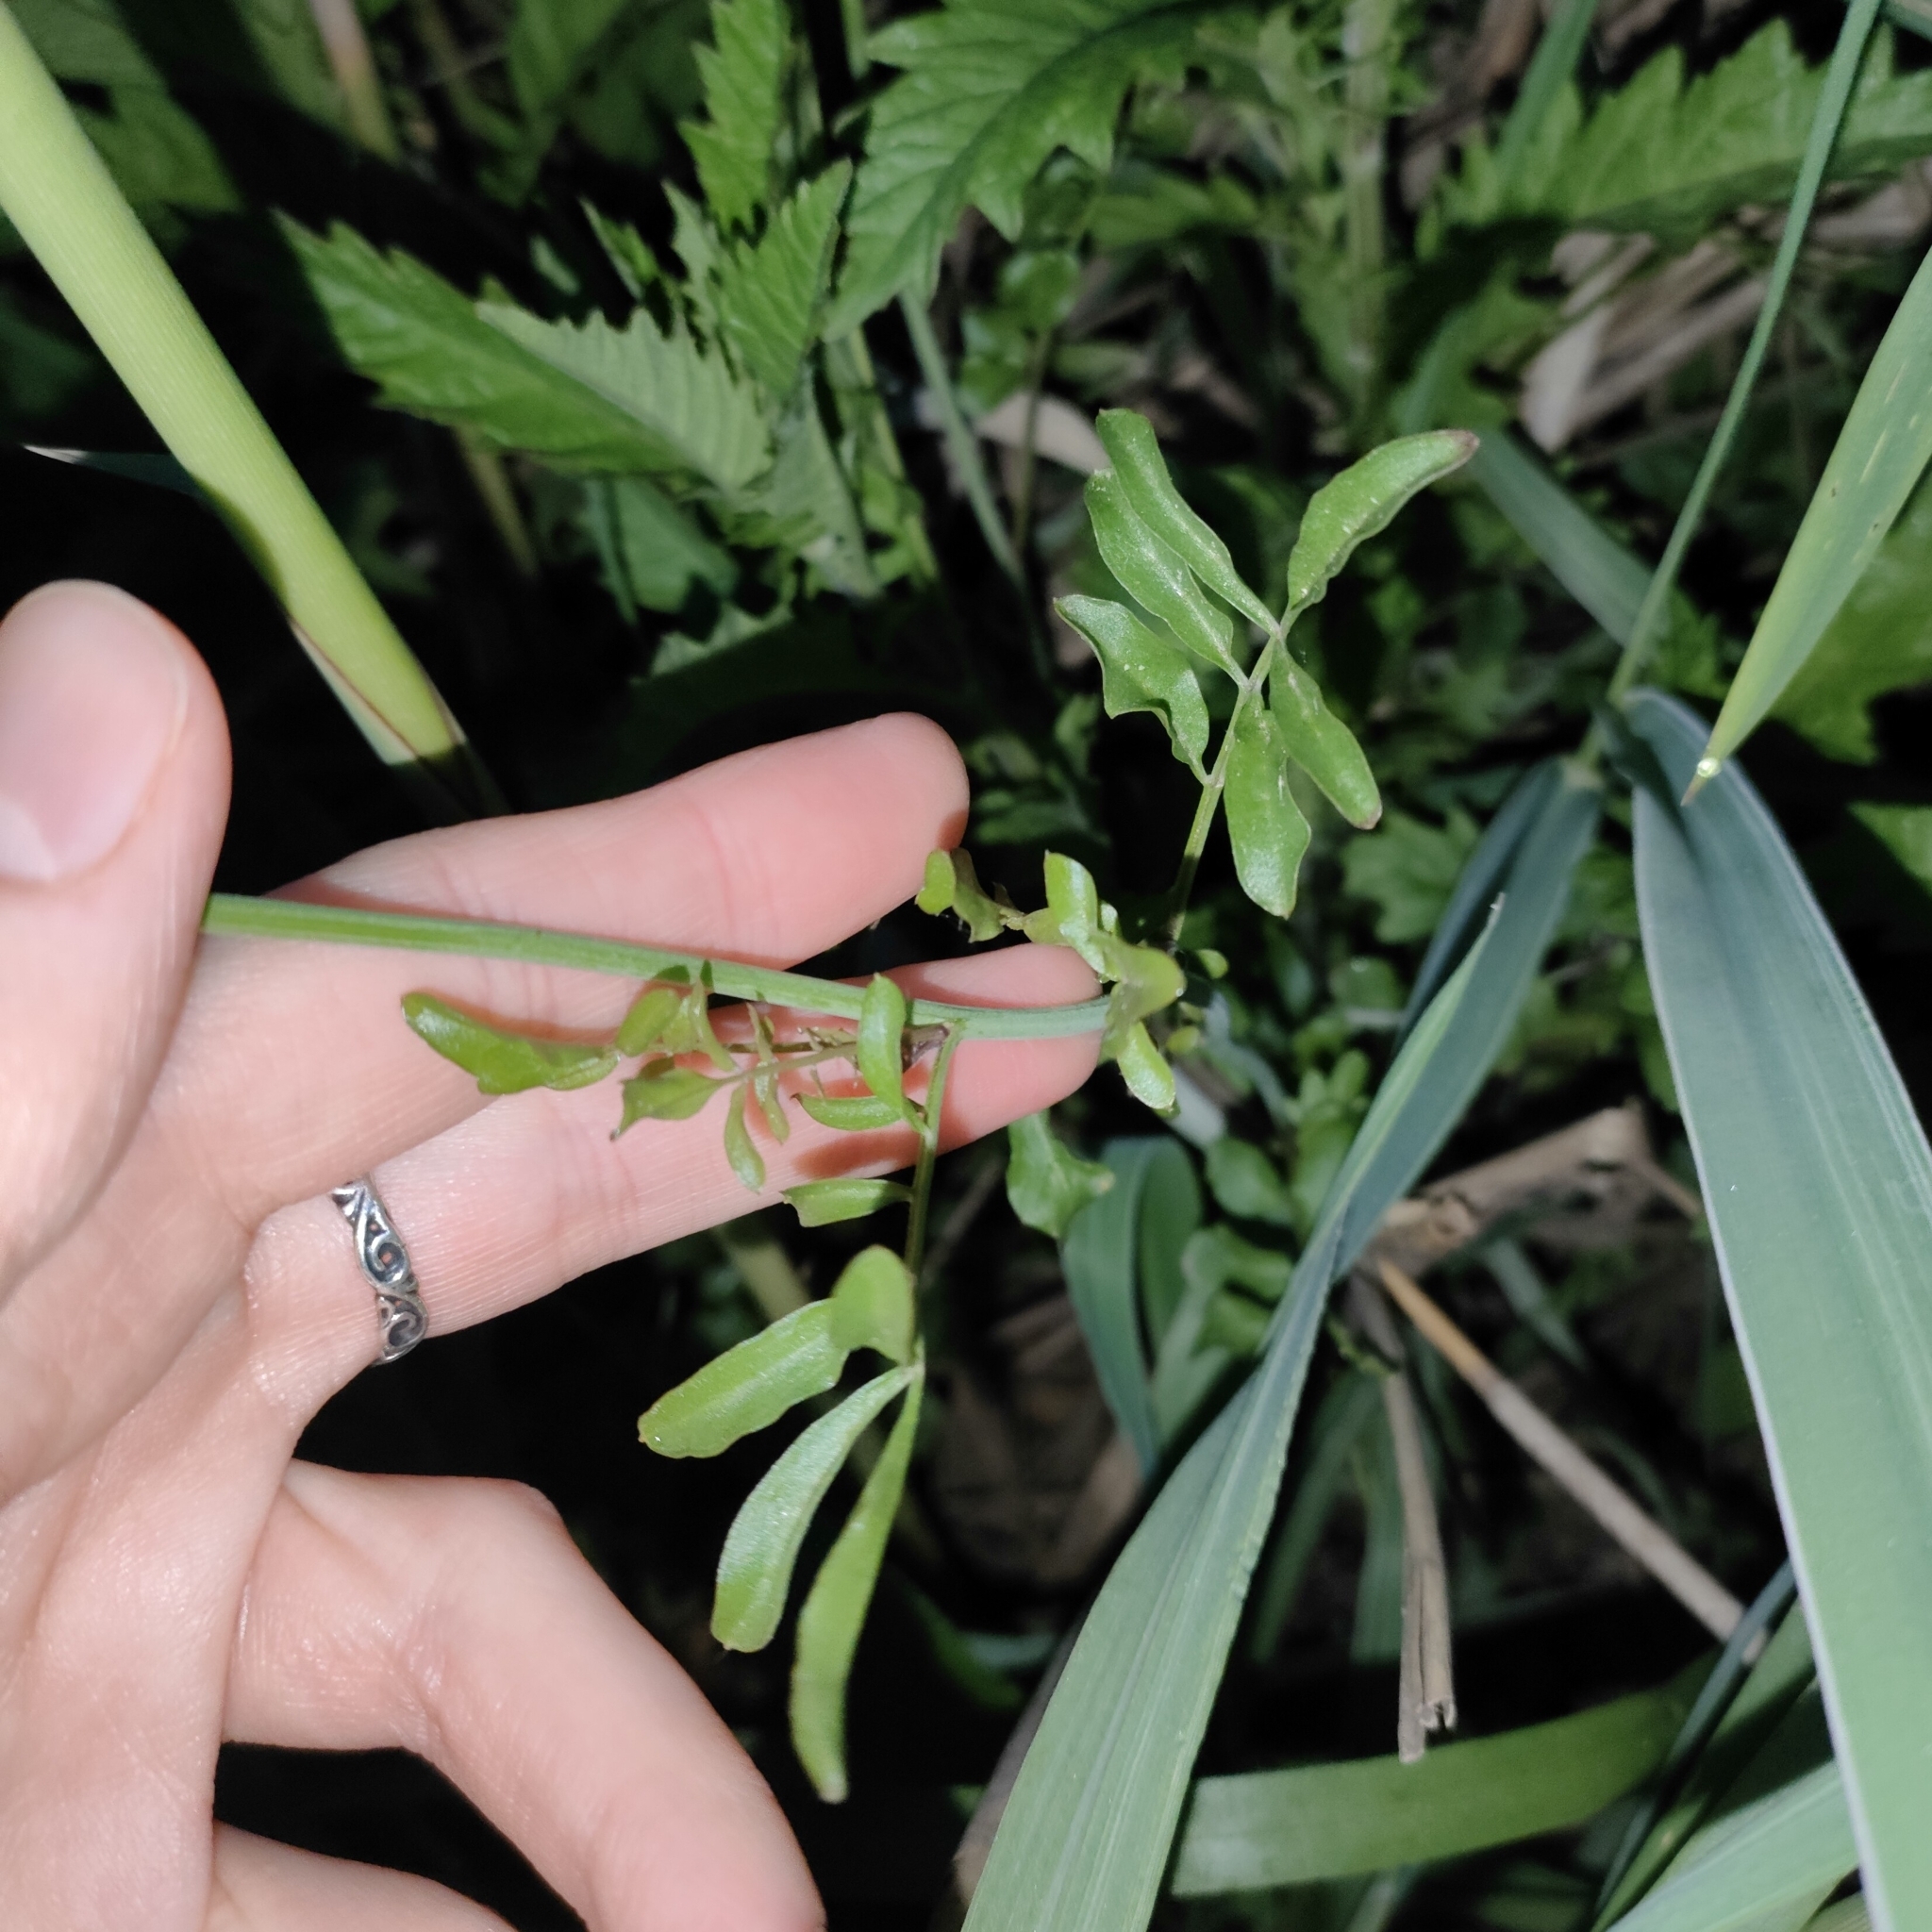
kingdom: Plantae
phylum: Tracheophyta
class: Magnoliopsida
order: Brassicales
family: Brassicaceae
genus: Cardamine
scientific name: Cardamine dentata
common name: Toothed bittercress
